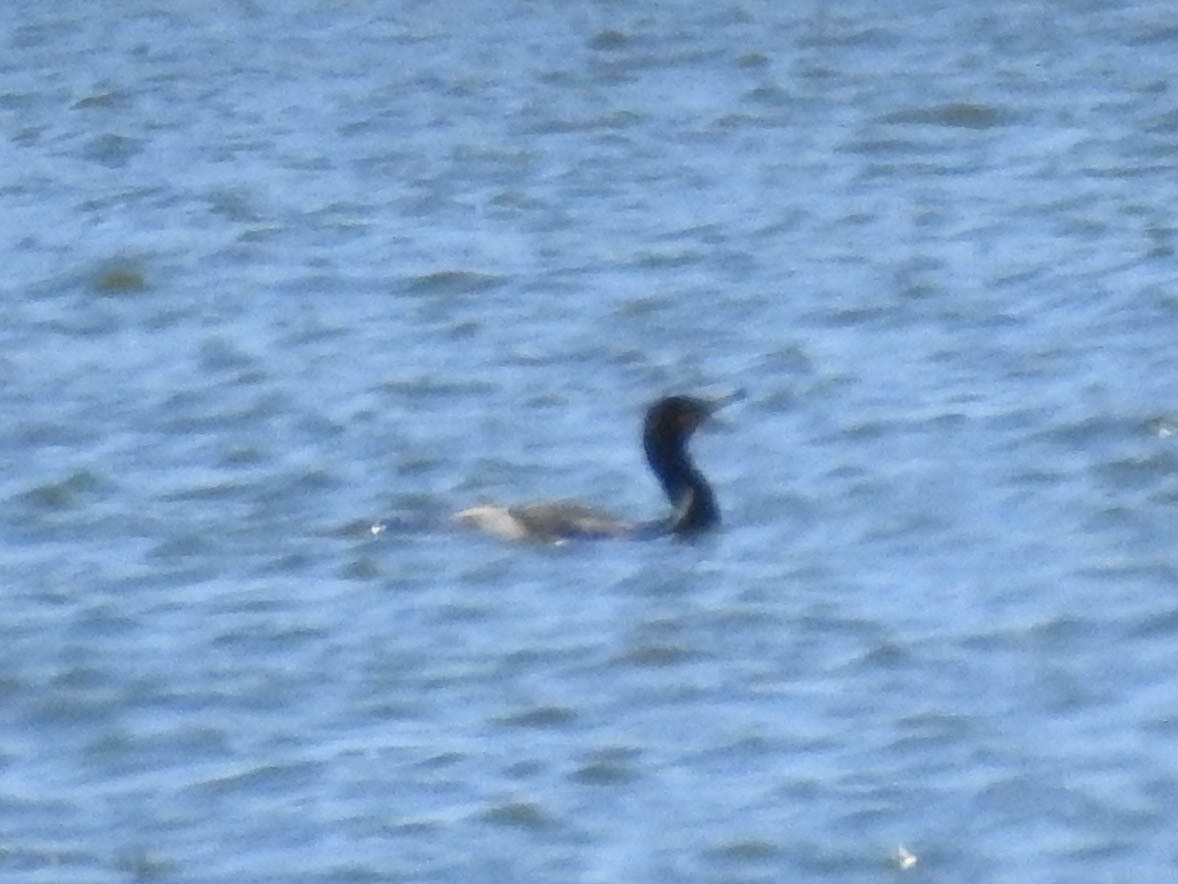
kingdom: Animalia
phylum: Chordata
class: Aves
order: Suliformes
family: Phalacrocoracidae
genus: Phalacrocorax
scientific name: Phalacrocorax auritus
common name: Double-crested cormorant
